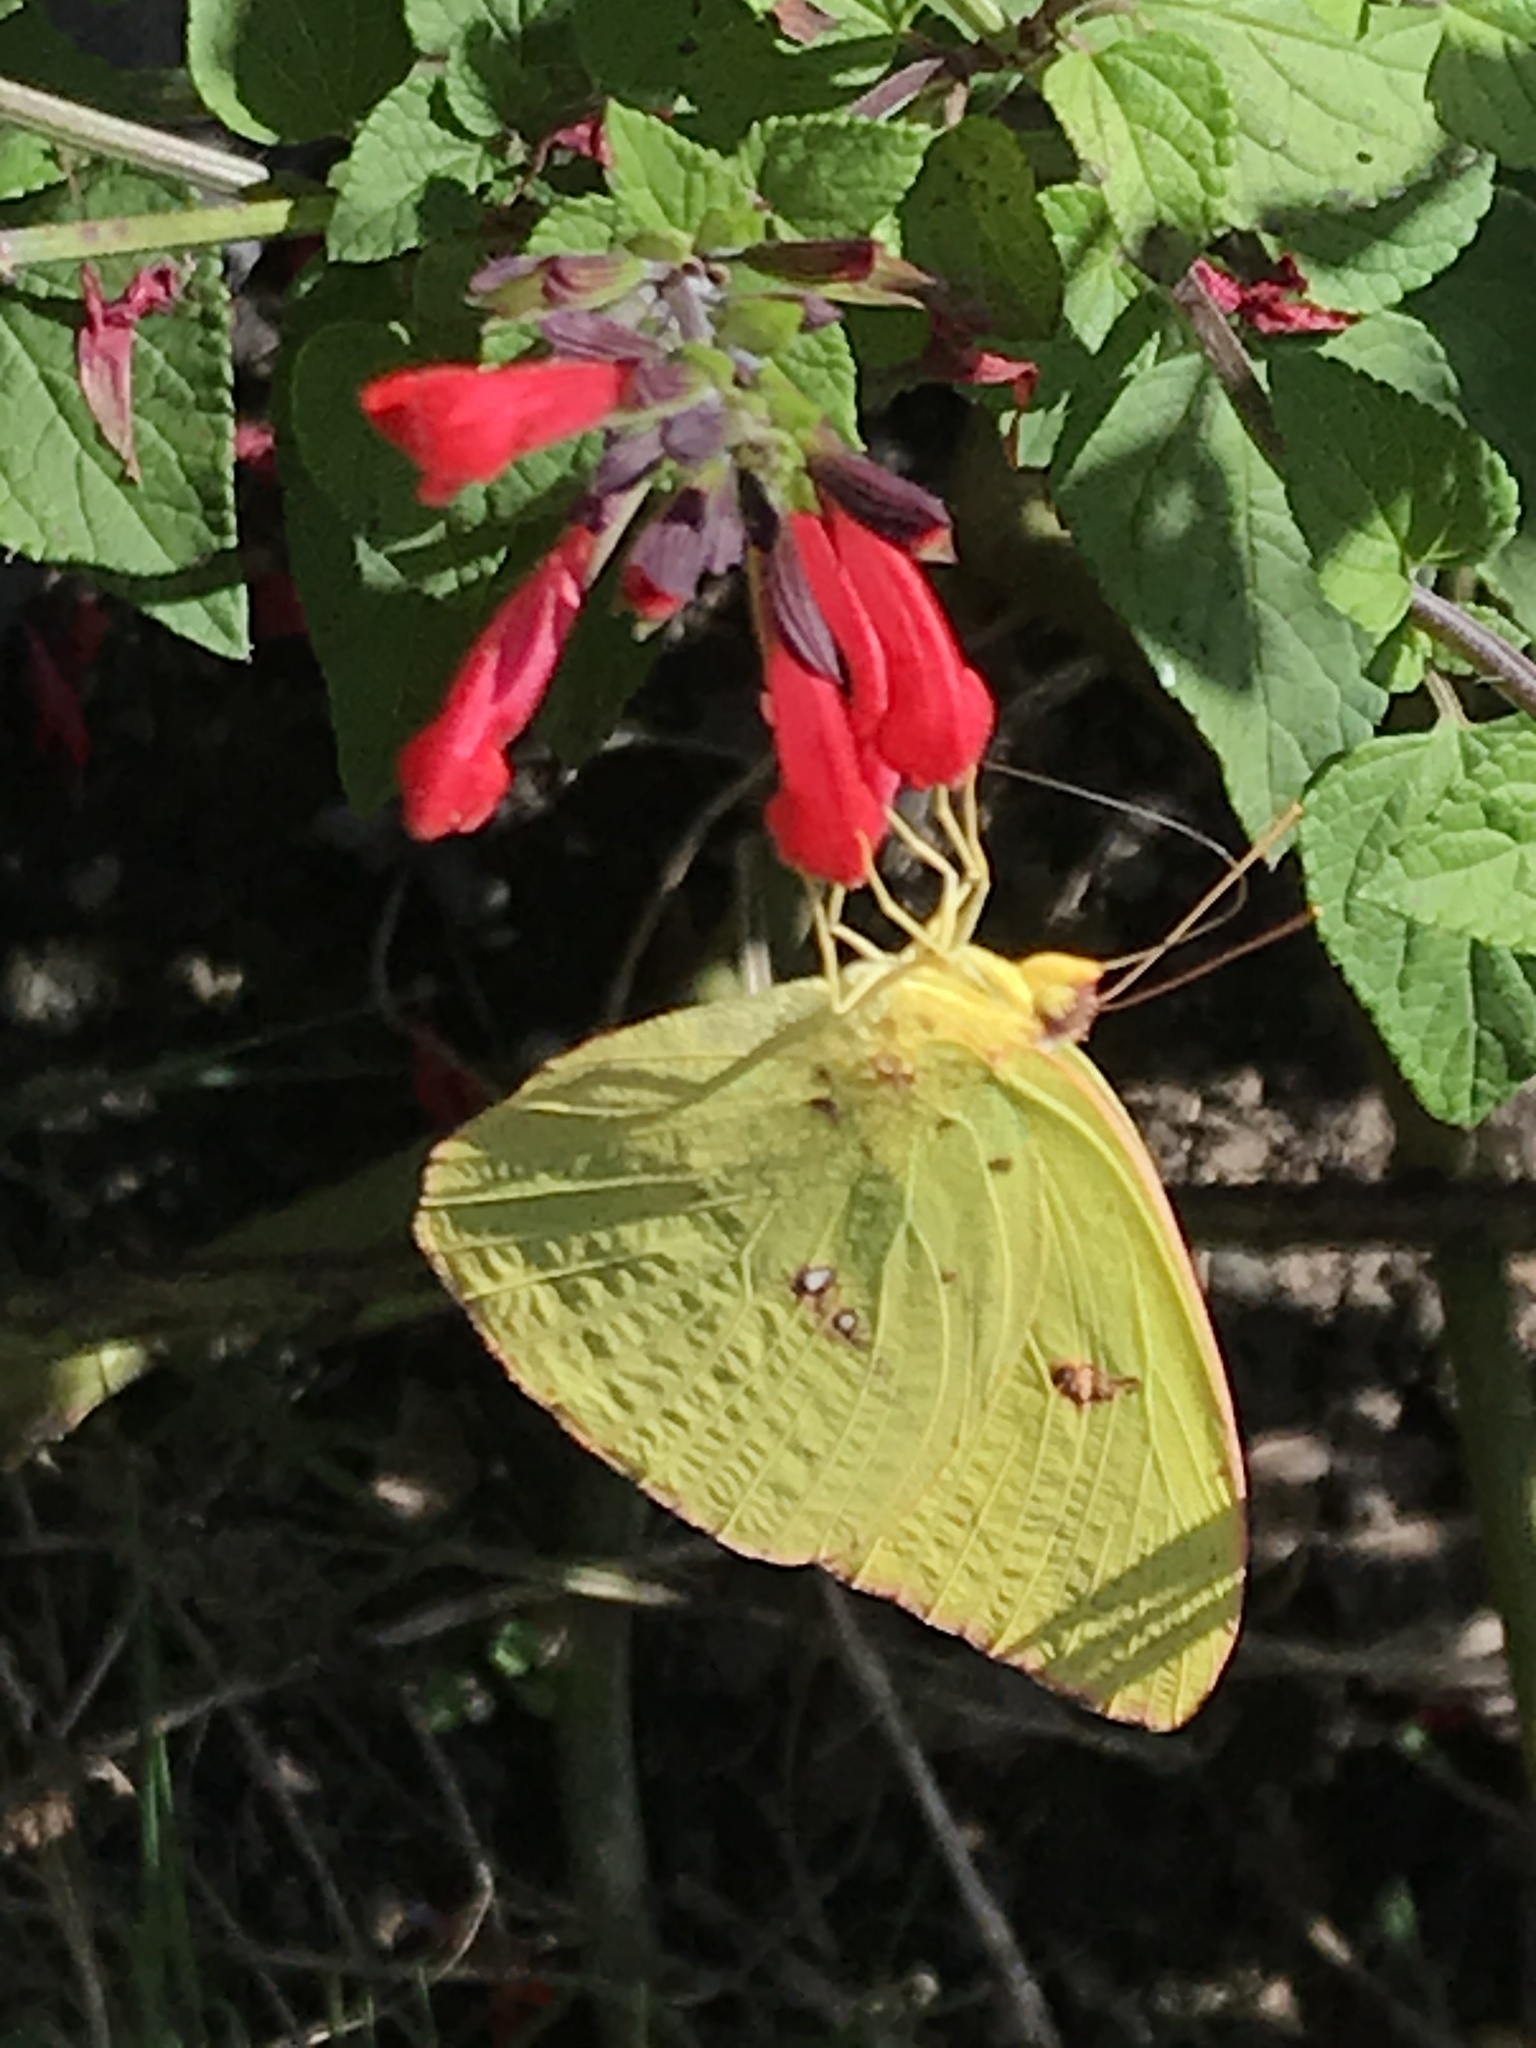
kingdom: Animalia
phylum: Arthropoda
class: Insecta
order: Lepidoptera
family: Pieridae
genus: Phoebis
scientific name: Phoebis sennae
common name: Cloudless sulphur
